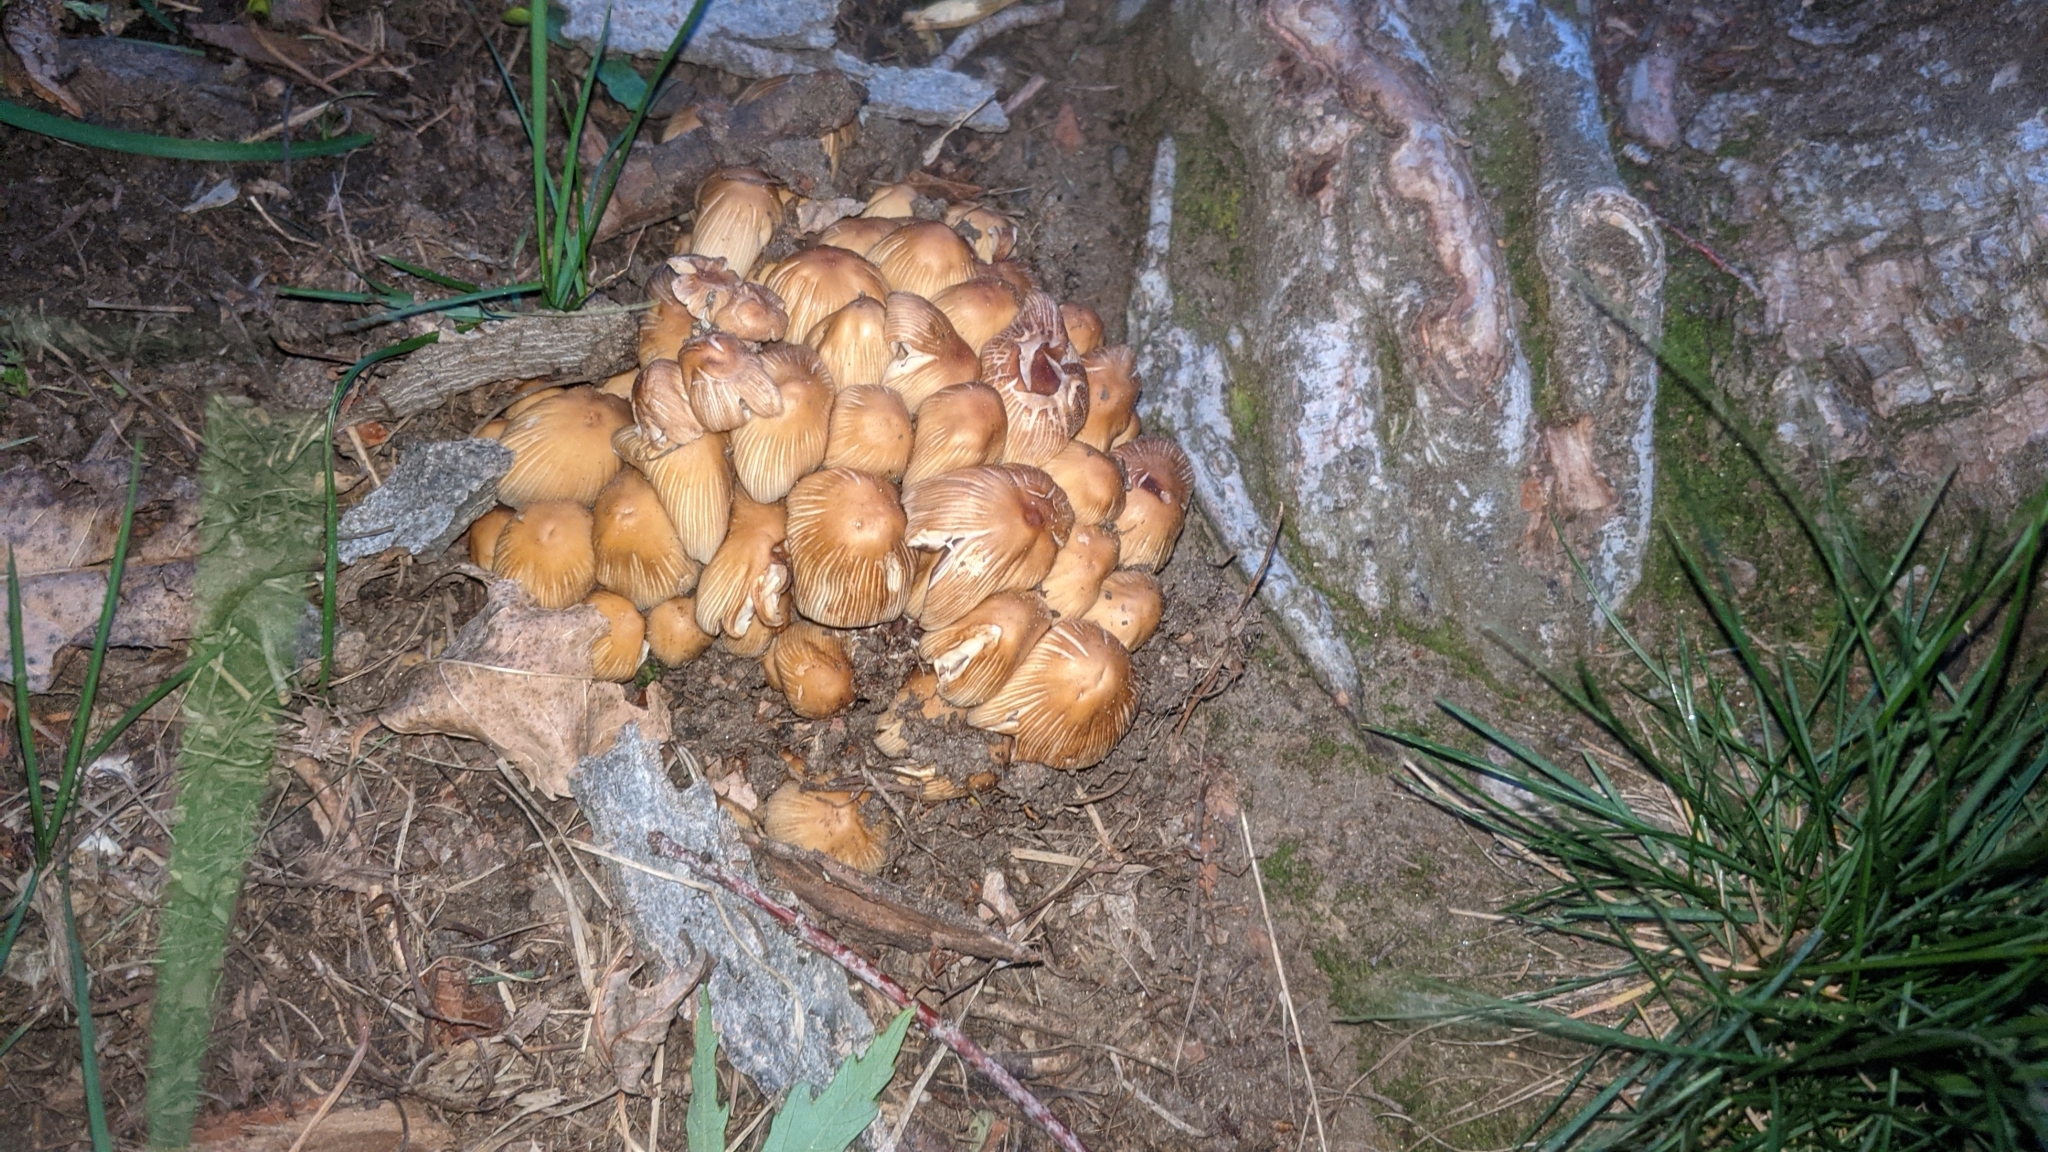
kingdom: Fungi
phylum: Basidiomycota
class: Agaricomycetes
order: Agaricales
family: Psathyrellaceae
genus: Coprinellus
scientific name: Coprinellus micaceus
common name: Glistening ink-cap
